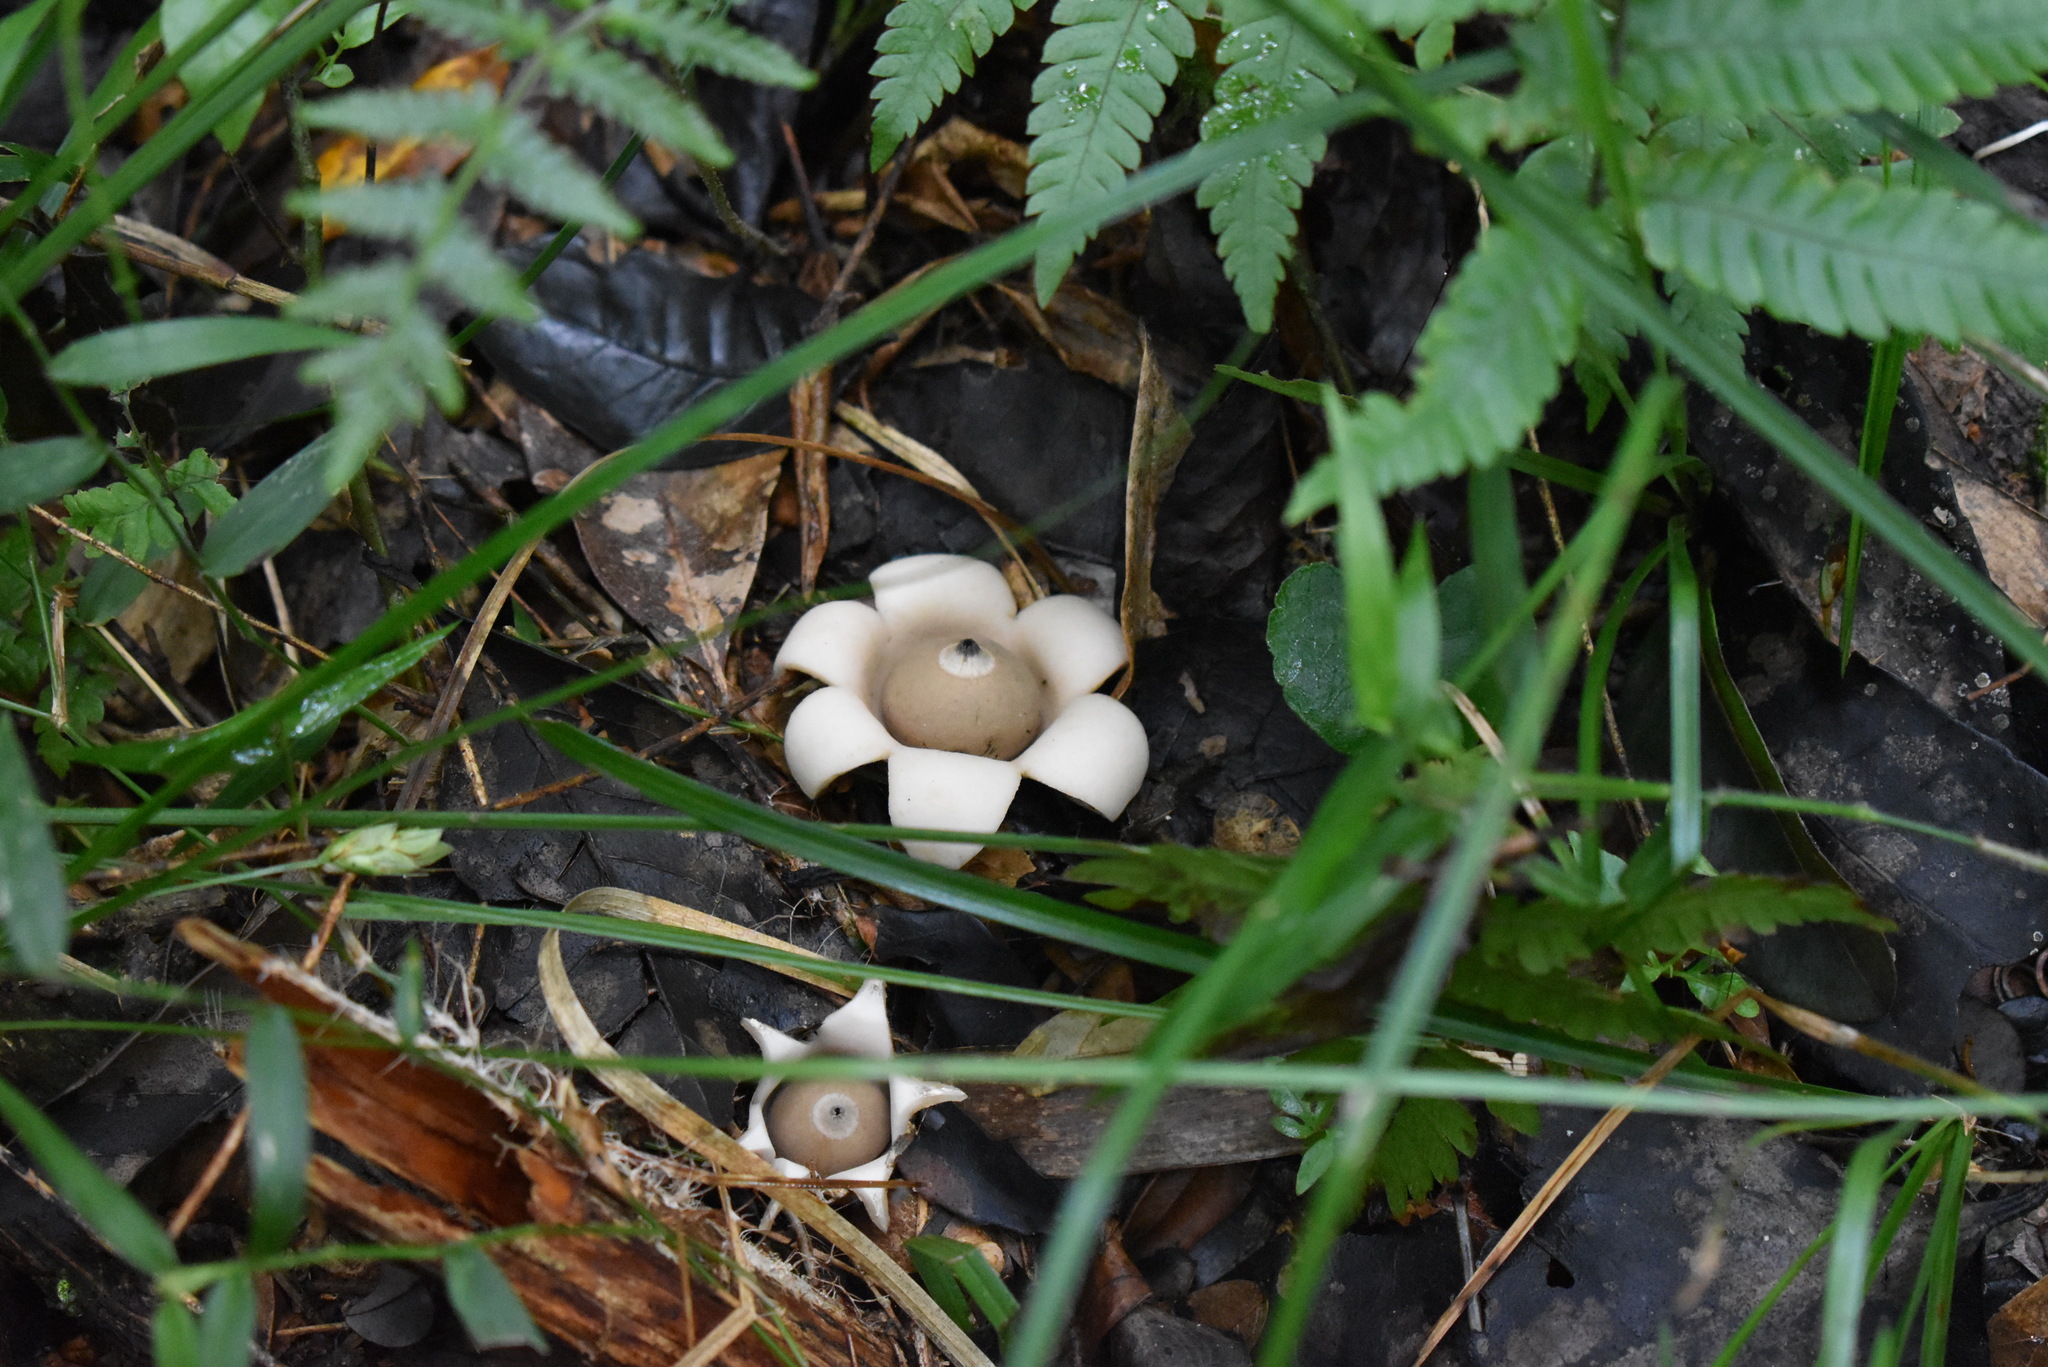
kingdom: Fungi
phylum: Basidiomycota
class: Agaricomycetes
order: Geastrales
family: Geastraceae
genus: Geastrum
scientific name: Geastrum saccatum
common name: Rounded earthstar
